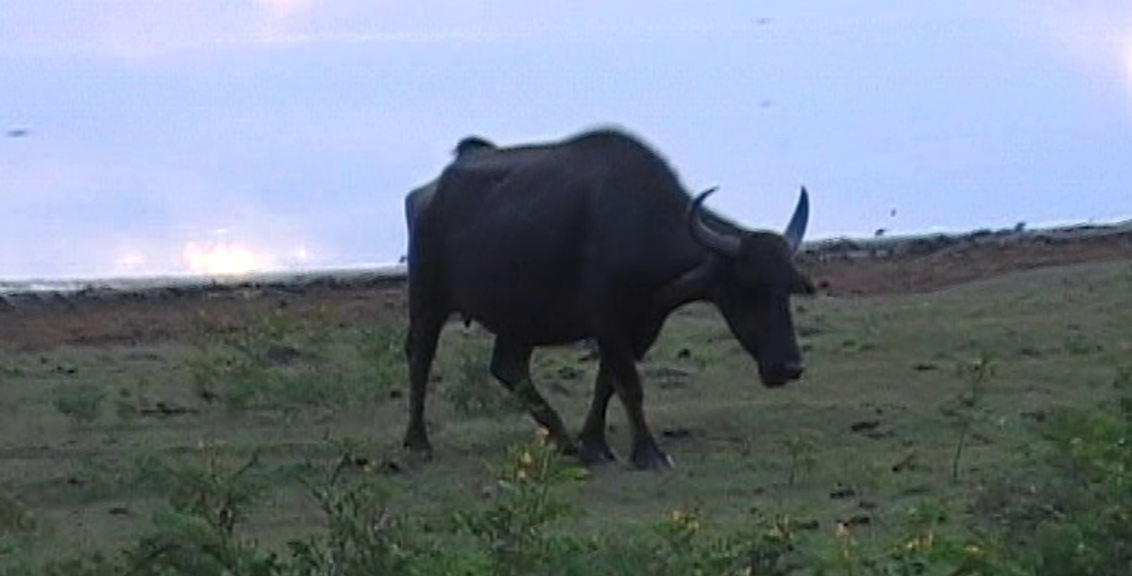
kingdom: Animalia
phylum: Chordata
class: Mammalia
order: Artiodactyla
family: Bovidae
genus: Bubalus
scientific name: Bubalus bubalis
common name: Water buffalo
